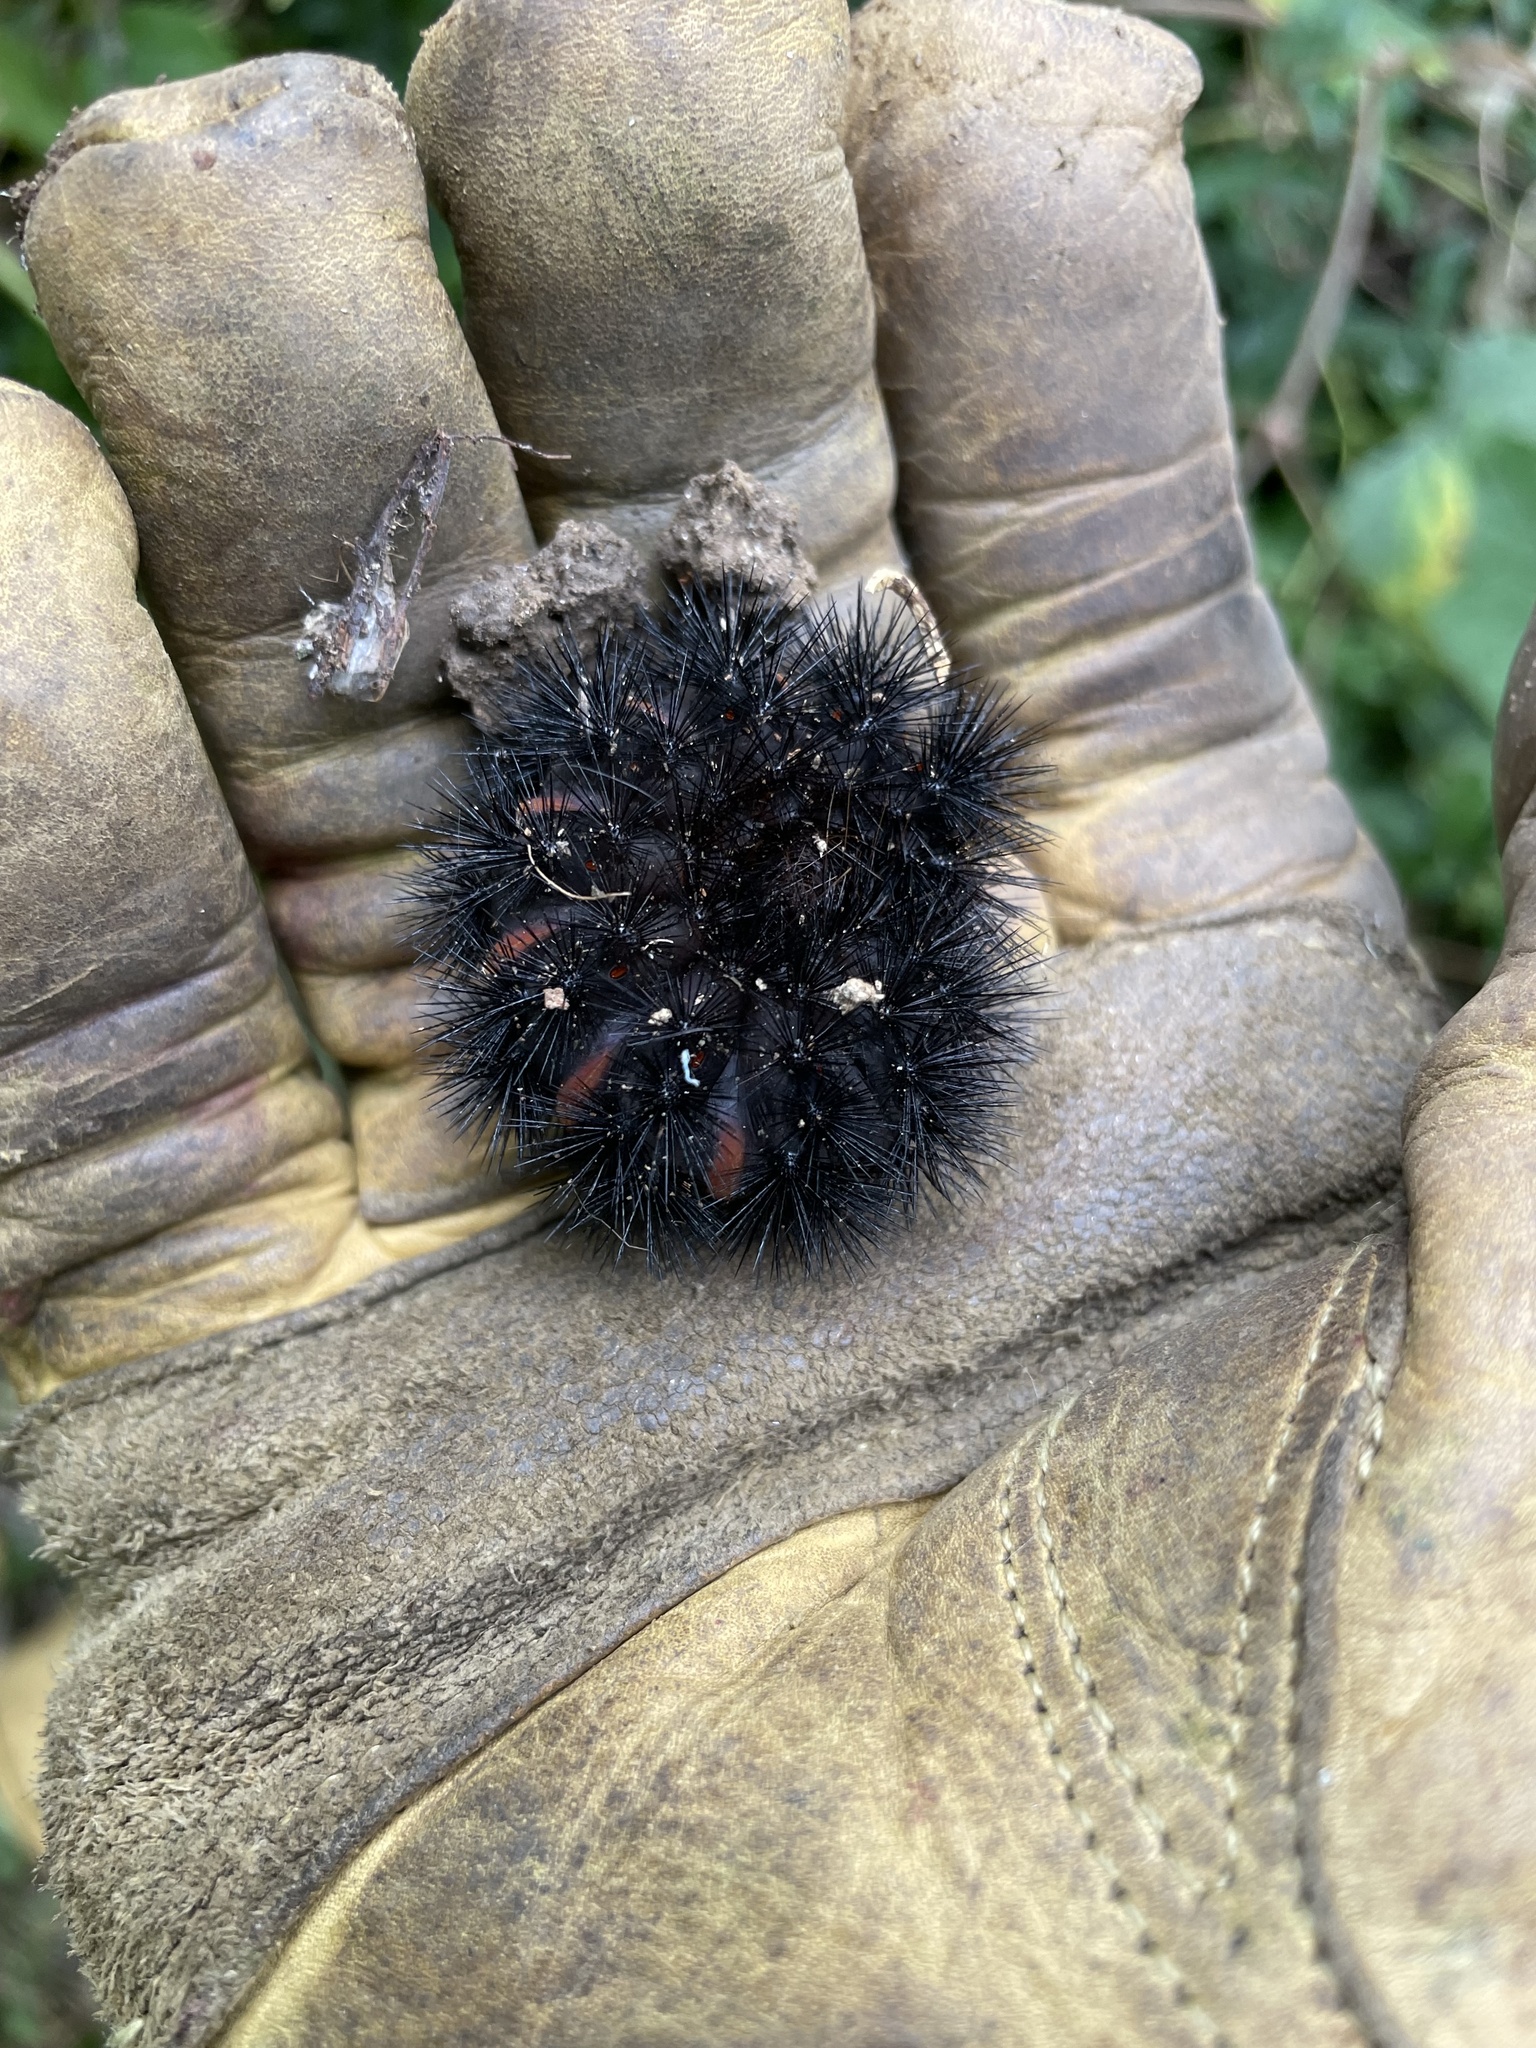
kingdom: Animalia
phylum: Arthropoda
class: Insecta
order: Lepidoptera
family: Erebidae
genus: Hypercompe
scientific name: Hypercompe scribonia
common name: Giant leopard moth
